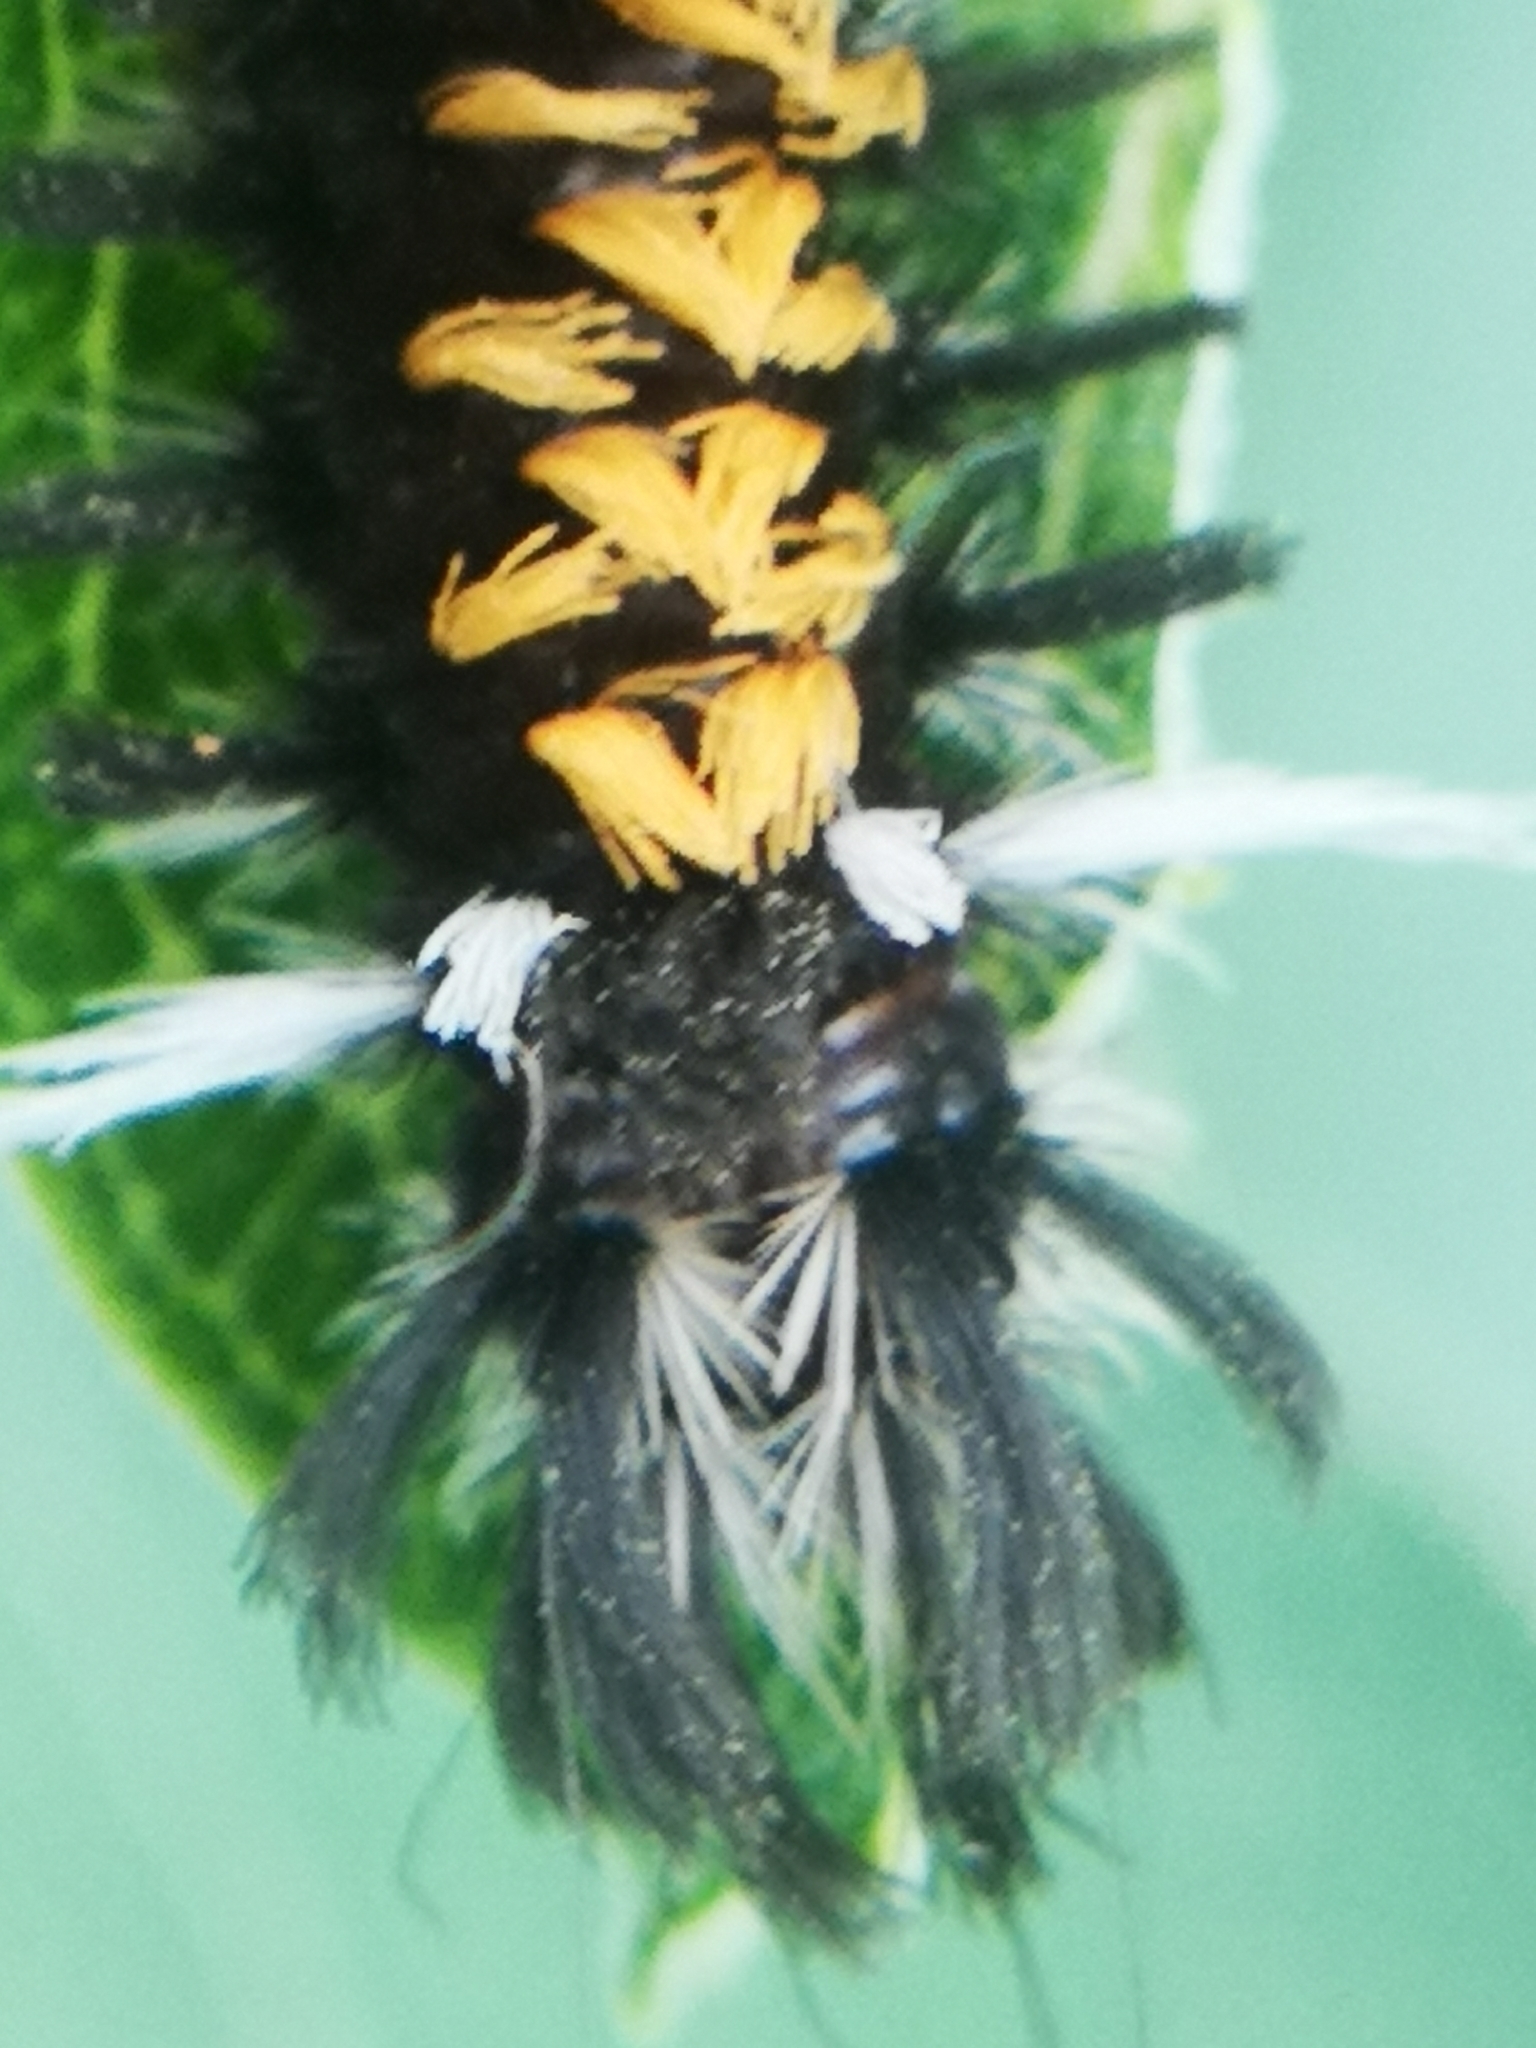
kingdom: Animalia
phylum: Arthropoda
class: Insecta
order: Lepidoptera
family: Erebidae
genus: Euchaetes
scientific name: Euchaetes egle
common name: Milkweed tussock moth
